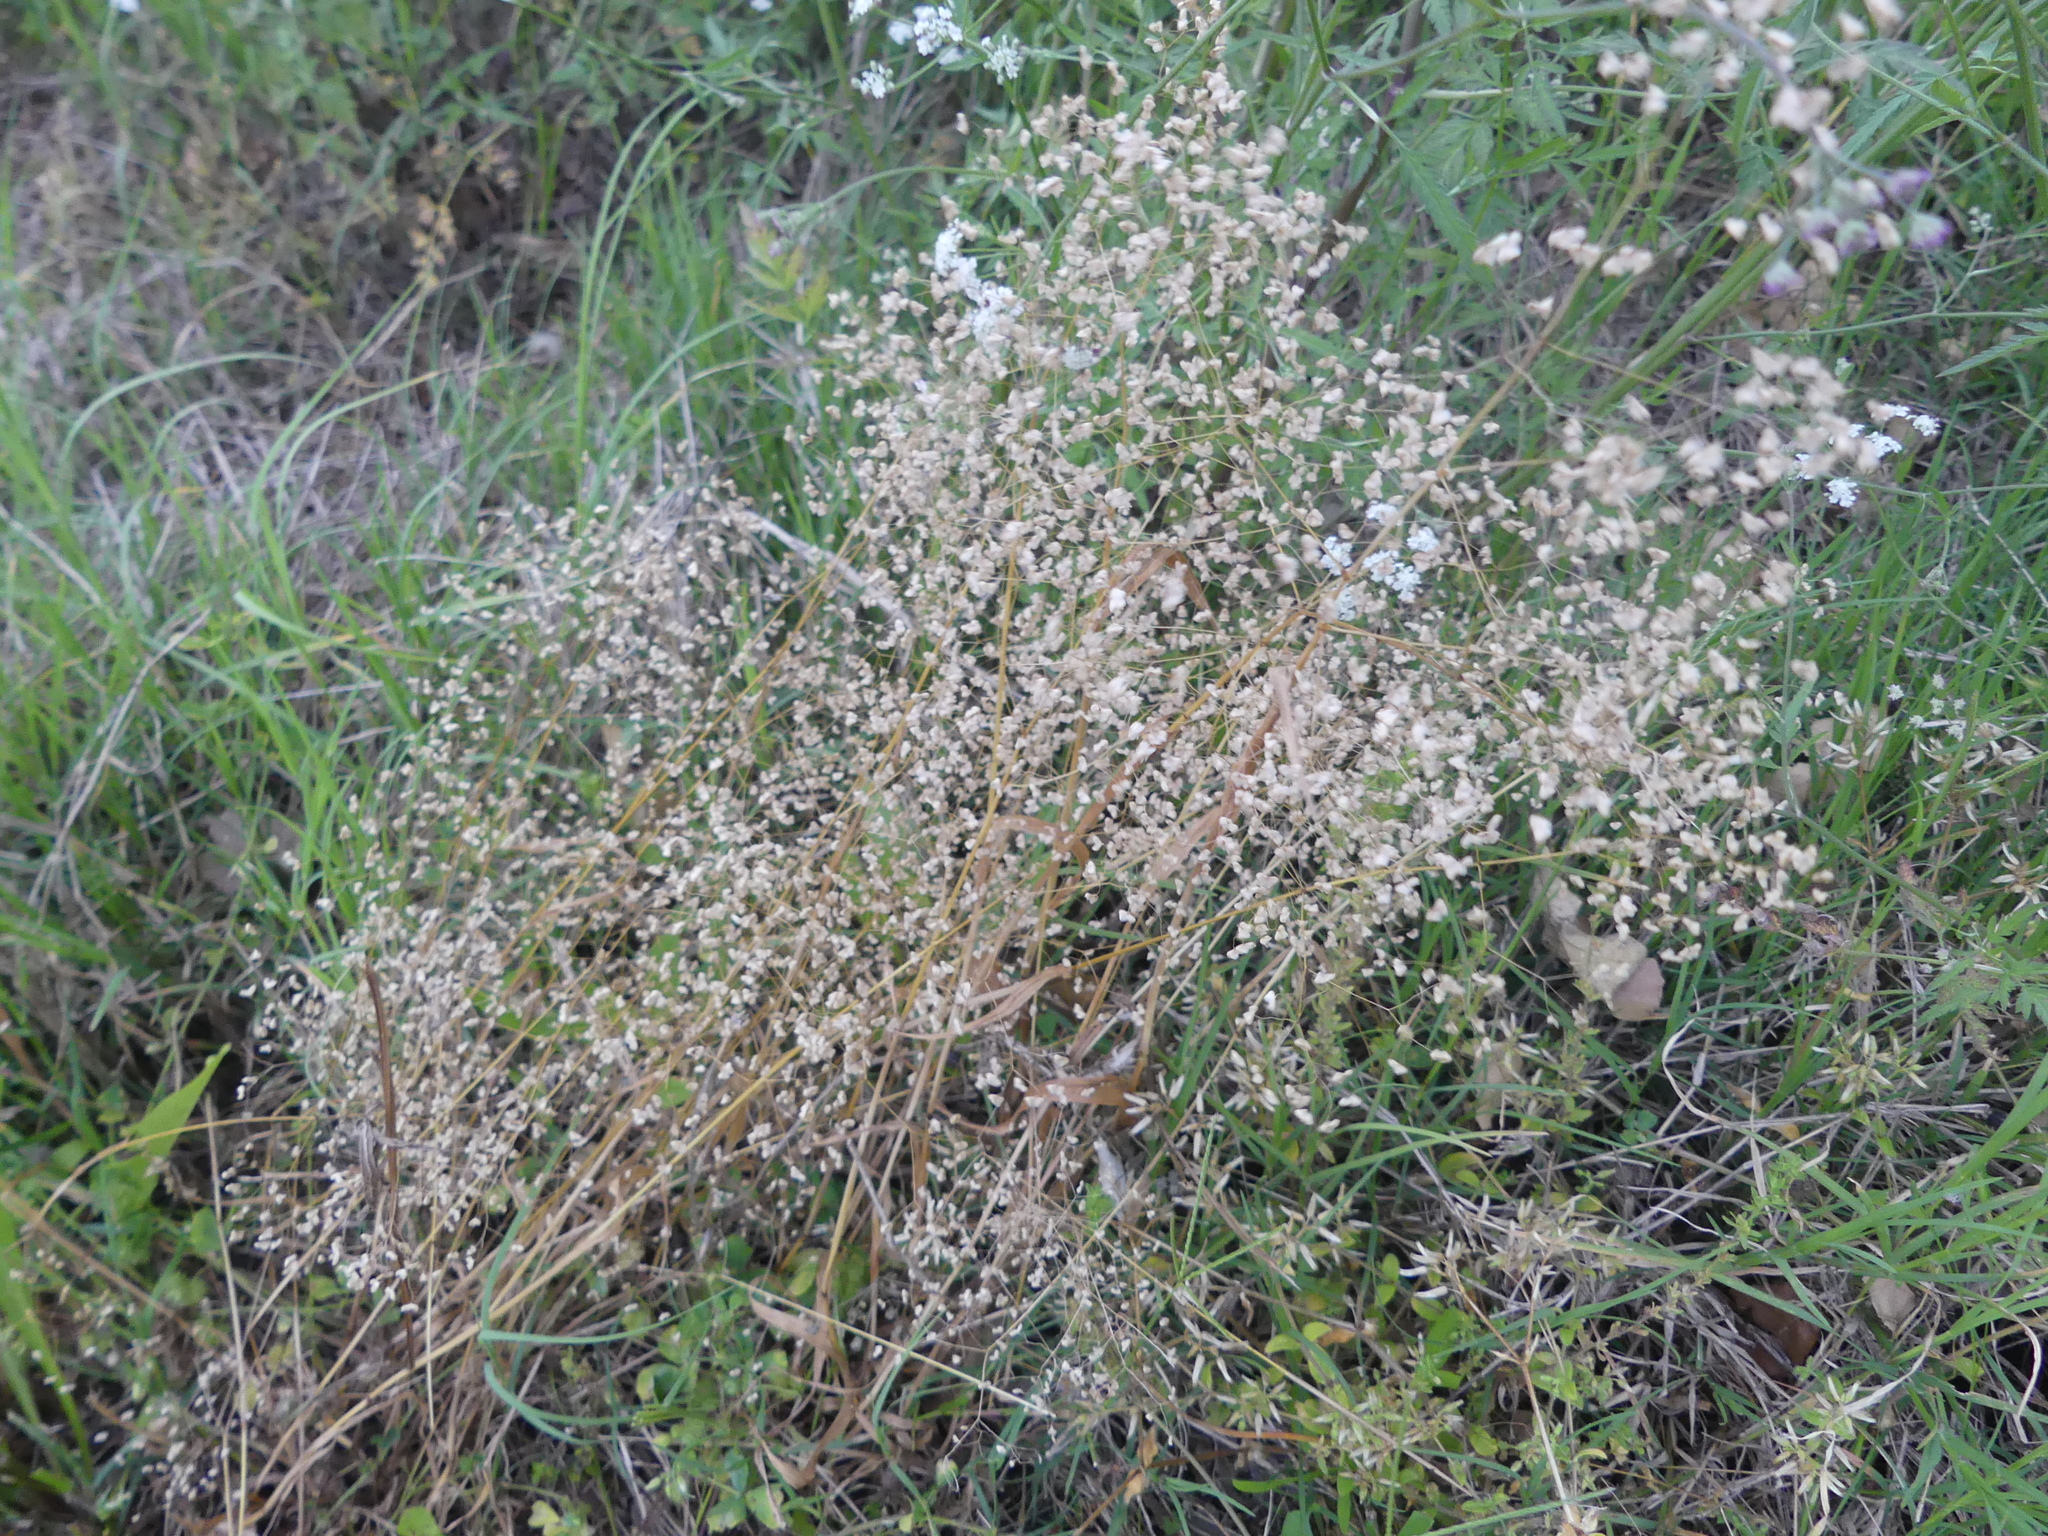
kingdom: Plantae
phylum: Tracheophyta
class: Liliopsida
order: Poales
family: Poaceae
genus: Briza
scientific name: Briza minor
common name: Lesser quaking-grass
